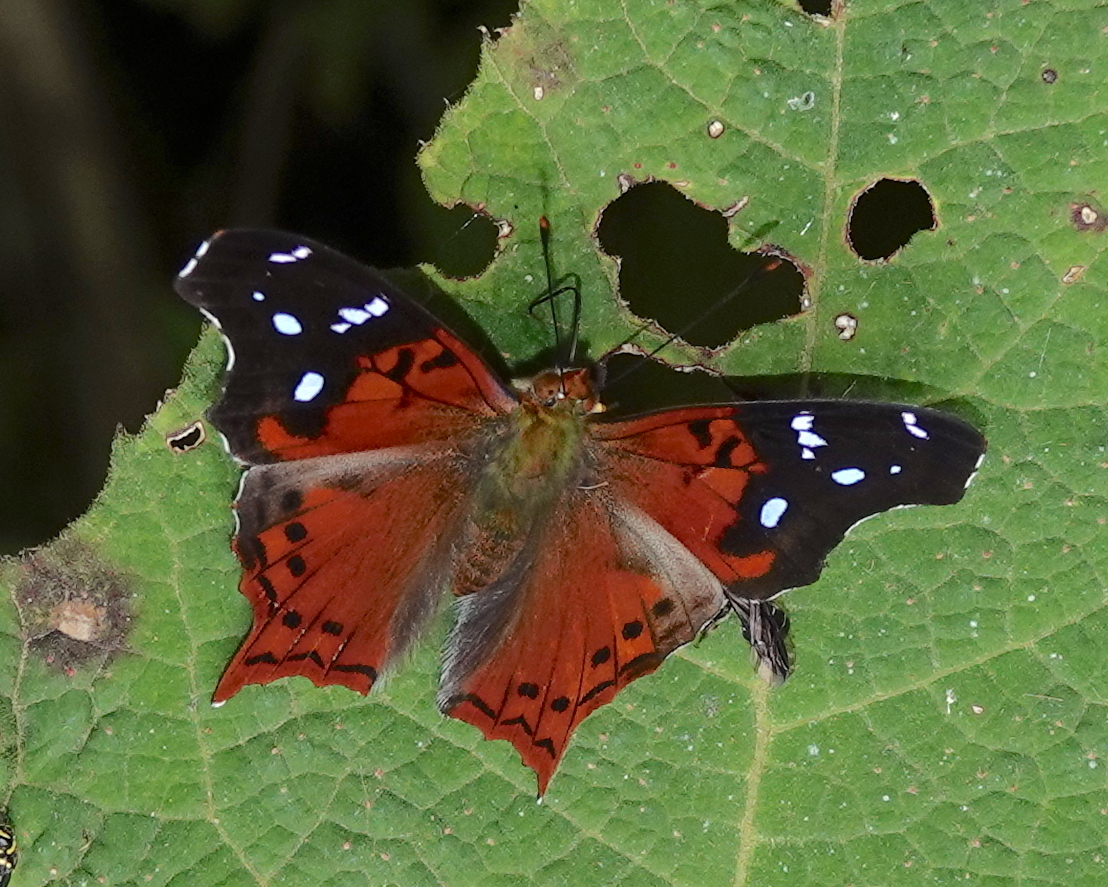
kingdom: Animalia
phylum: Arthropoda
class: Insecta
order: Lepidoptera
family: Nymphalidae
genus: Hypanartia
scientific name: Hypanartia kefersteini
